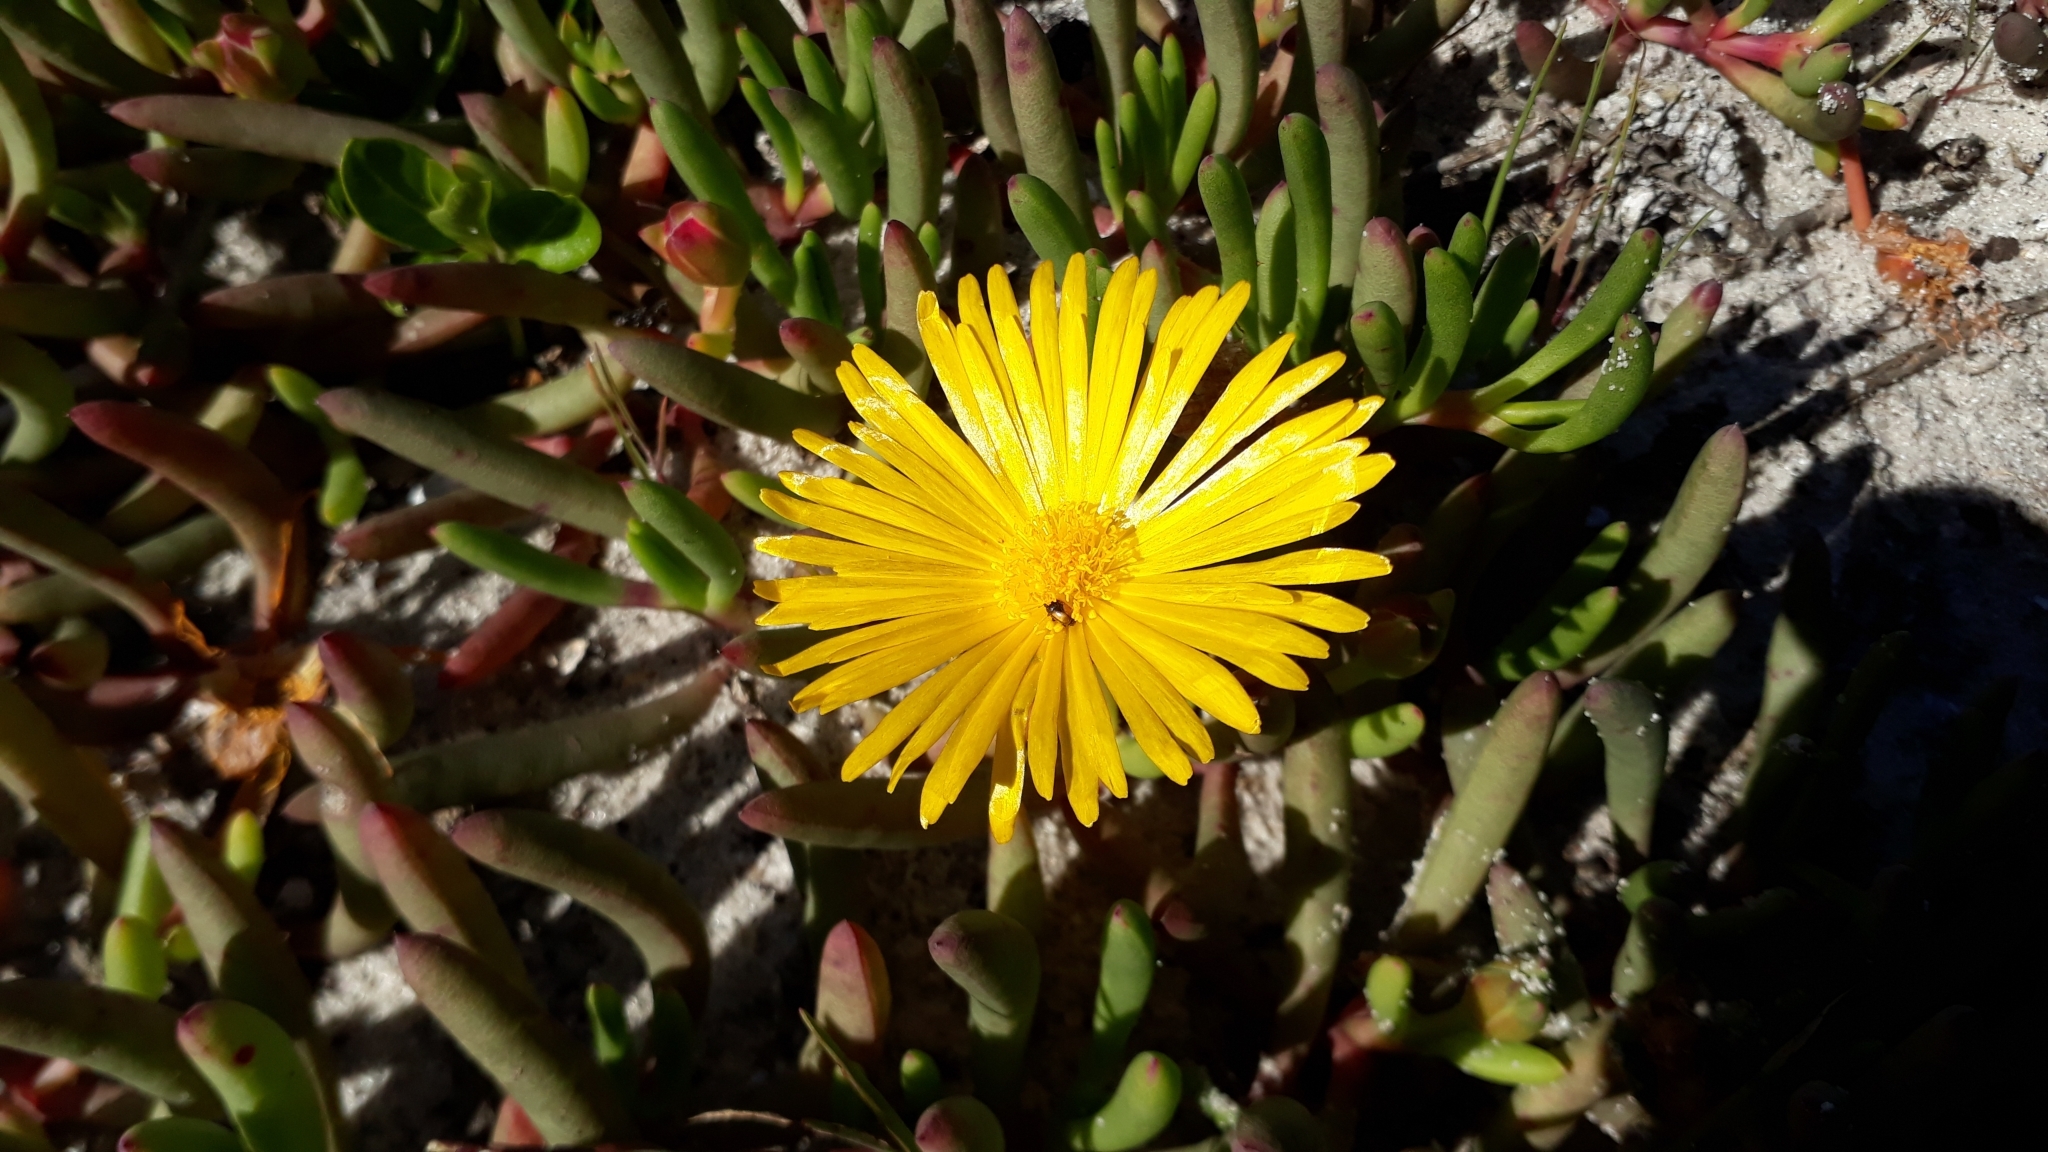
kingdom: Plantae
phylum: Tracheophyta
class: Magnoliopsida
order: Caryophyllales
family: Aizoaceae
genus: Jordaaniella
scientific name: Jordaaniella dubia
